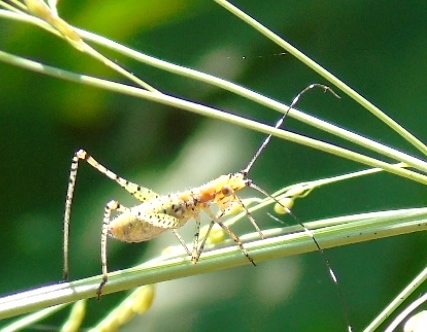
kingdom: Animalia
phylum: Arthropoda
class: Insecta
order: Orthoptera
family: Tettigoniidae
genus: Scudderia
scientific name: Scudderia
